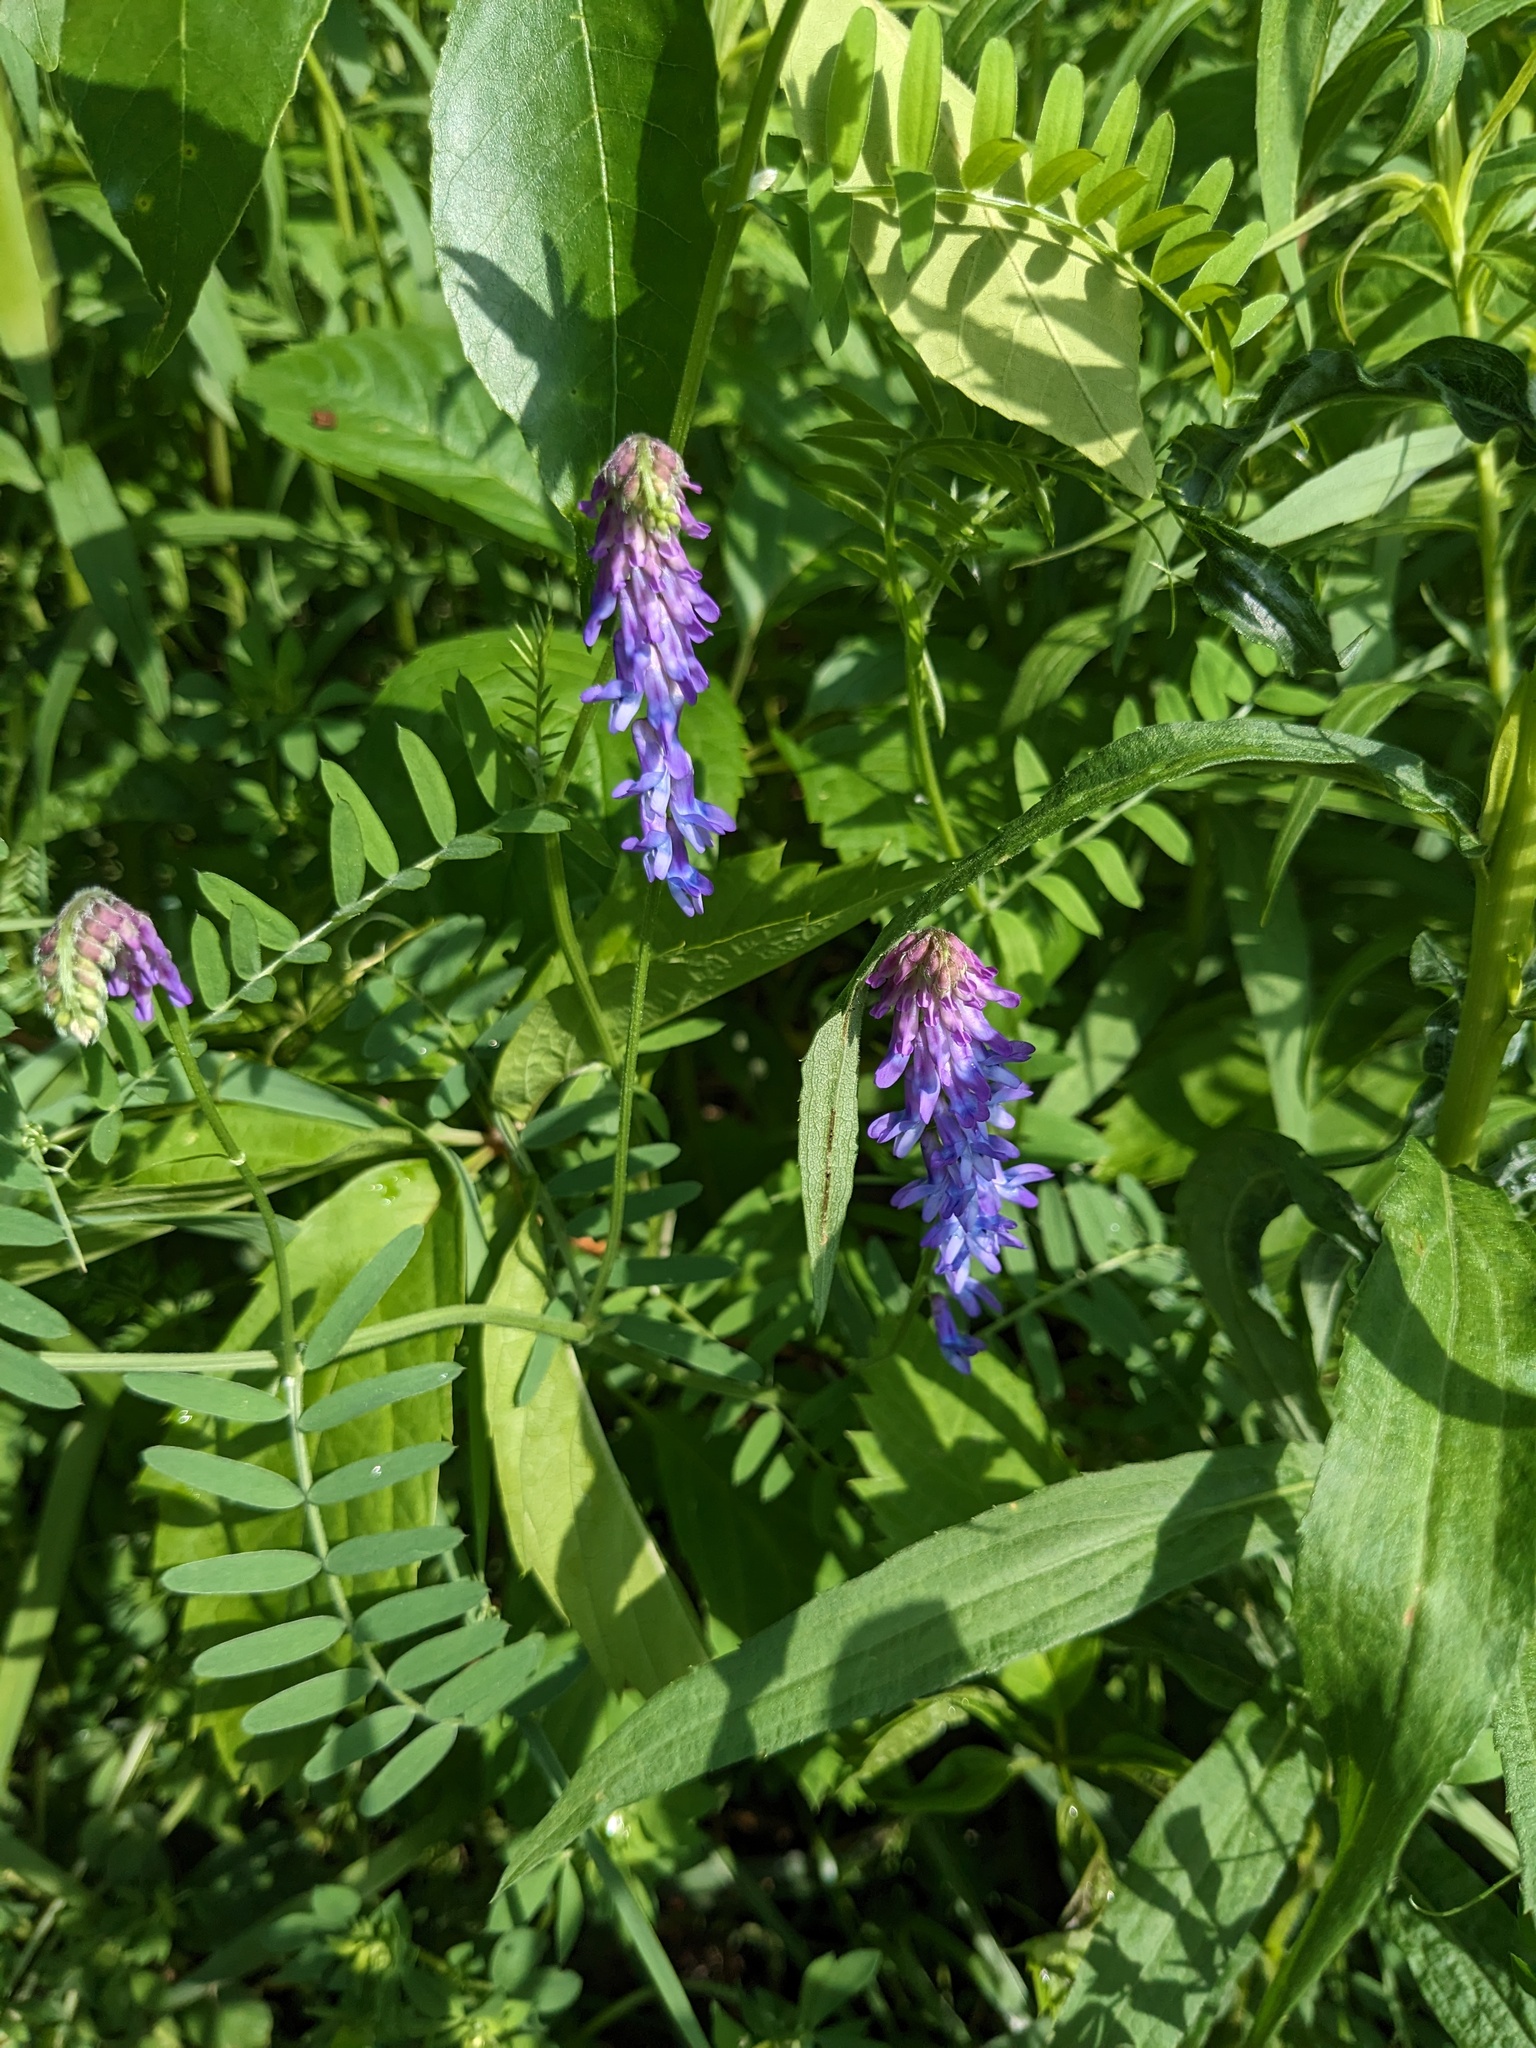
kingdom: Plantae
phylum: Tracheophyta
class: Magnoliopsida
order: Fabales
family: Fabaceae
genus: Vicia
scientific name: Vicia cracca
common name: Bird vetch
